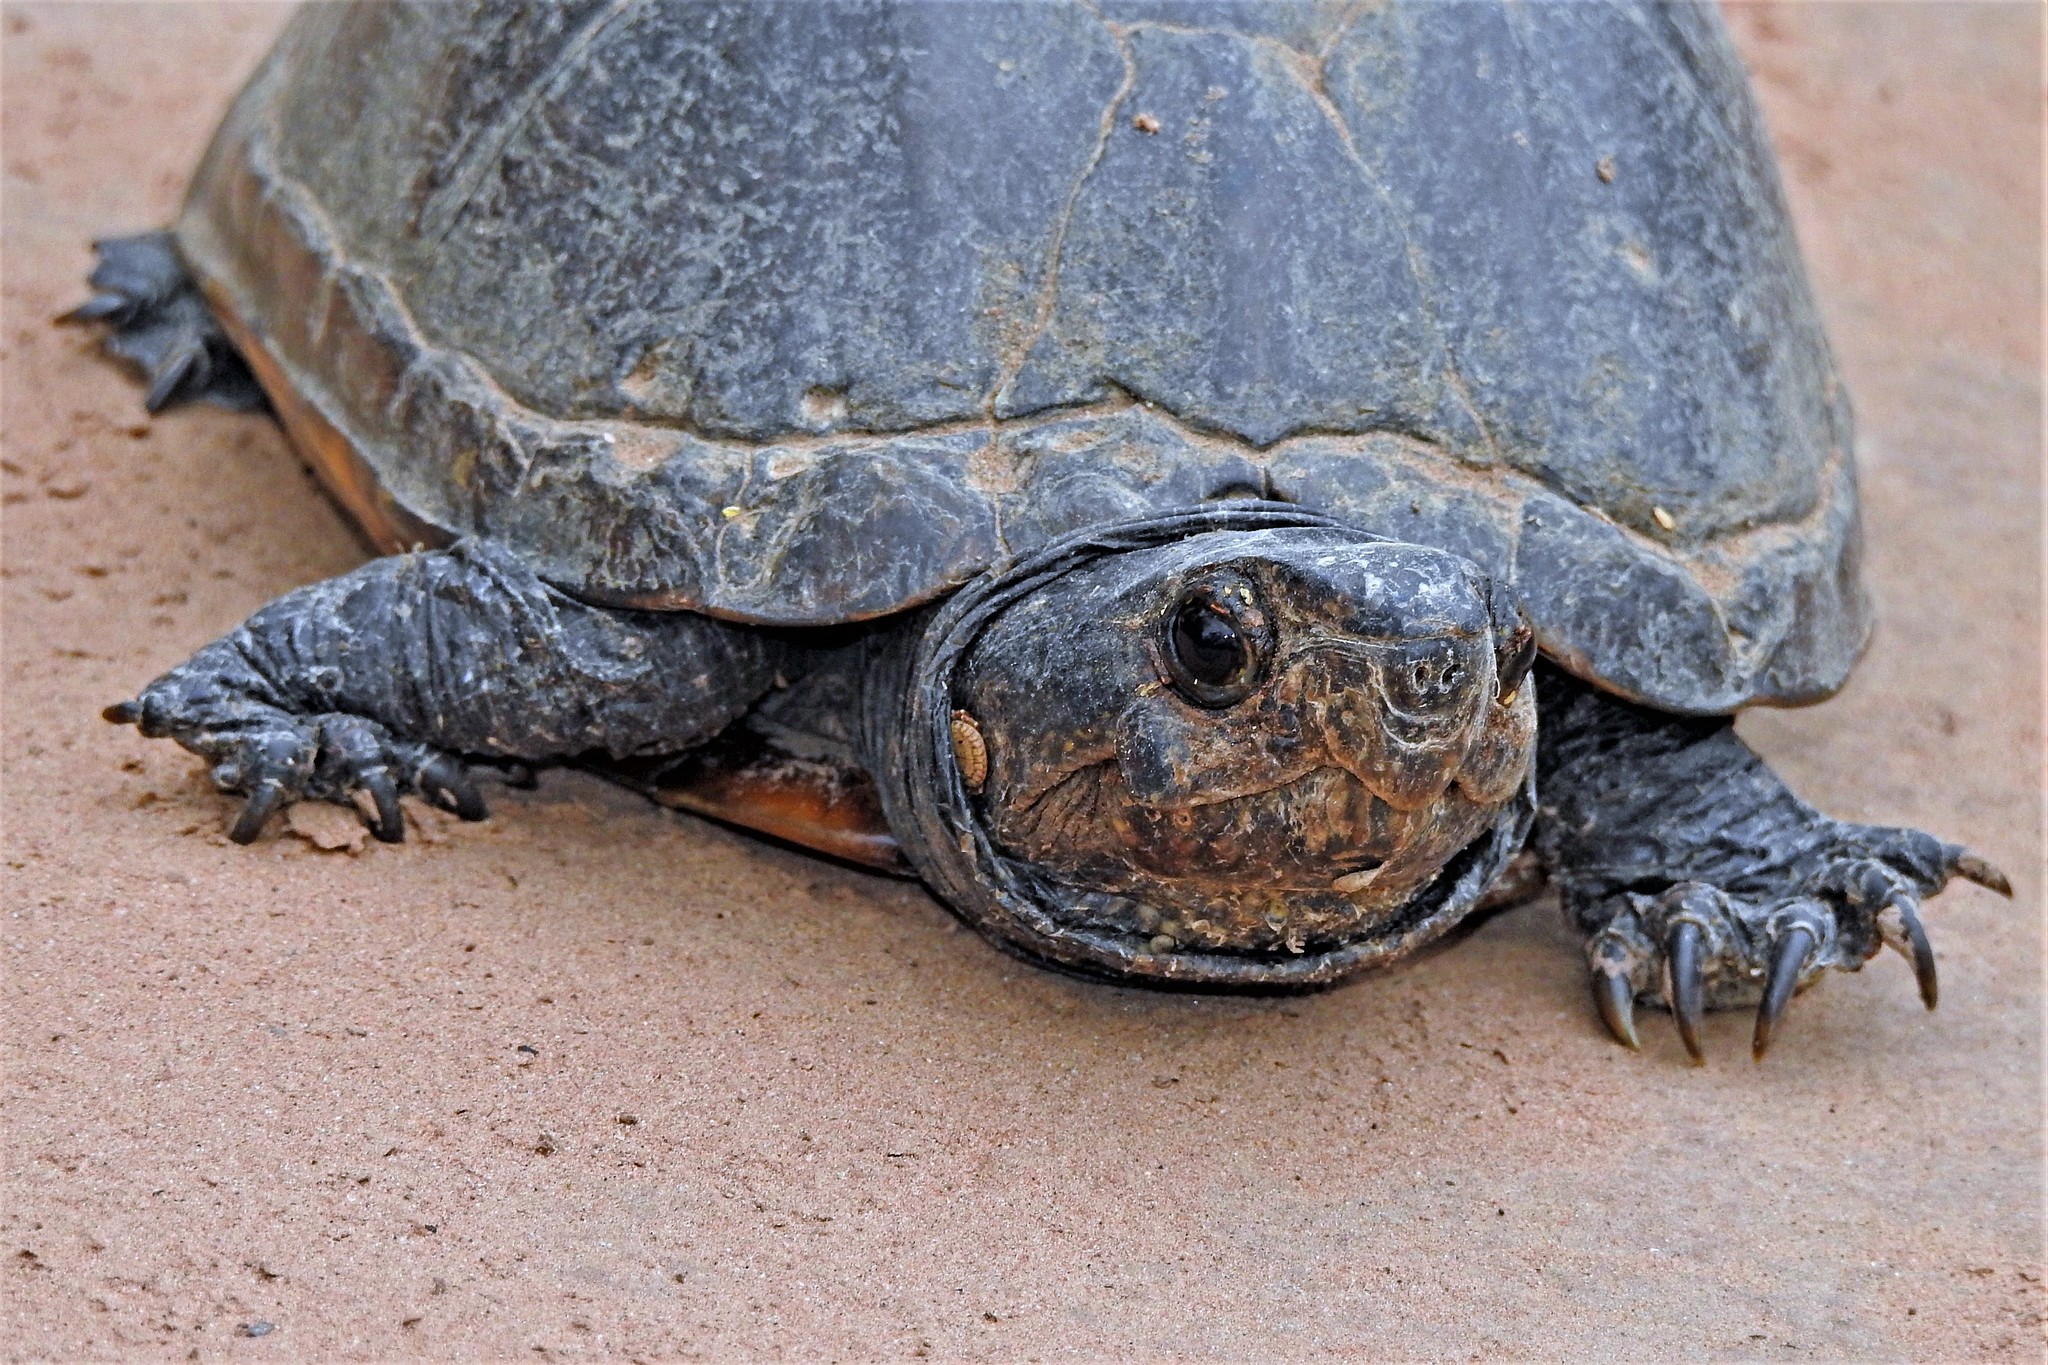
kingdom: Animalia
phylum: Chordata
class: Testudines
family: Kinosternidae
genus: Kinosternon
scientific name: Kinosternon scorpioides
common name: Scorpion mud turtle
